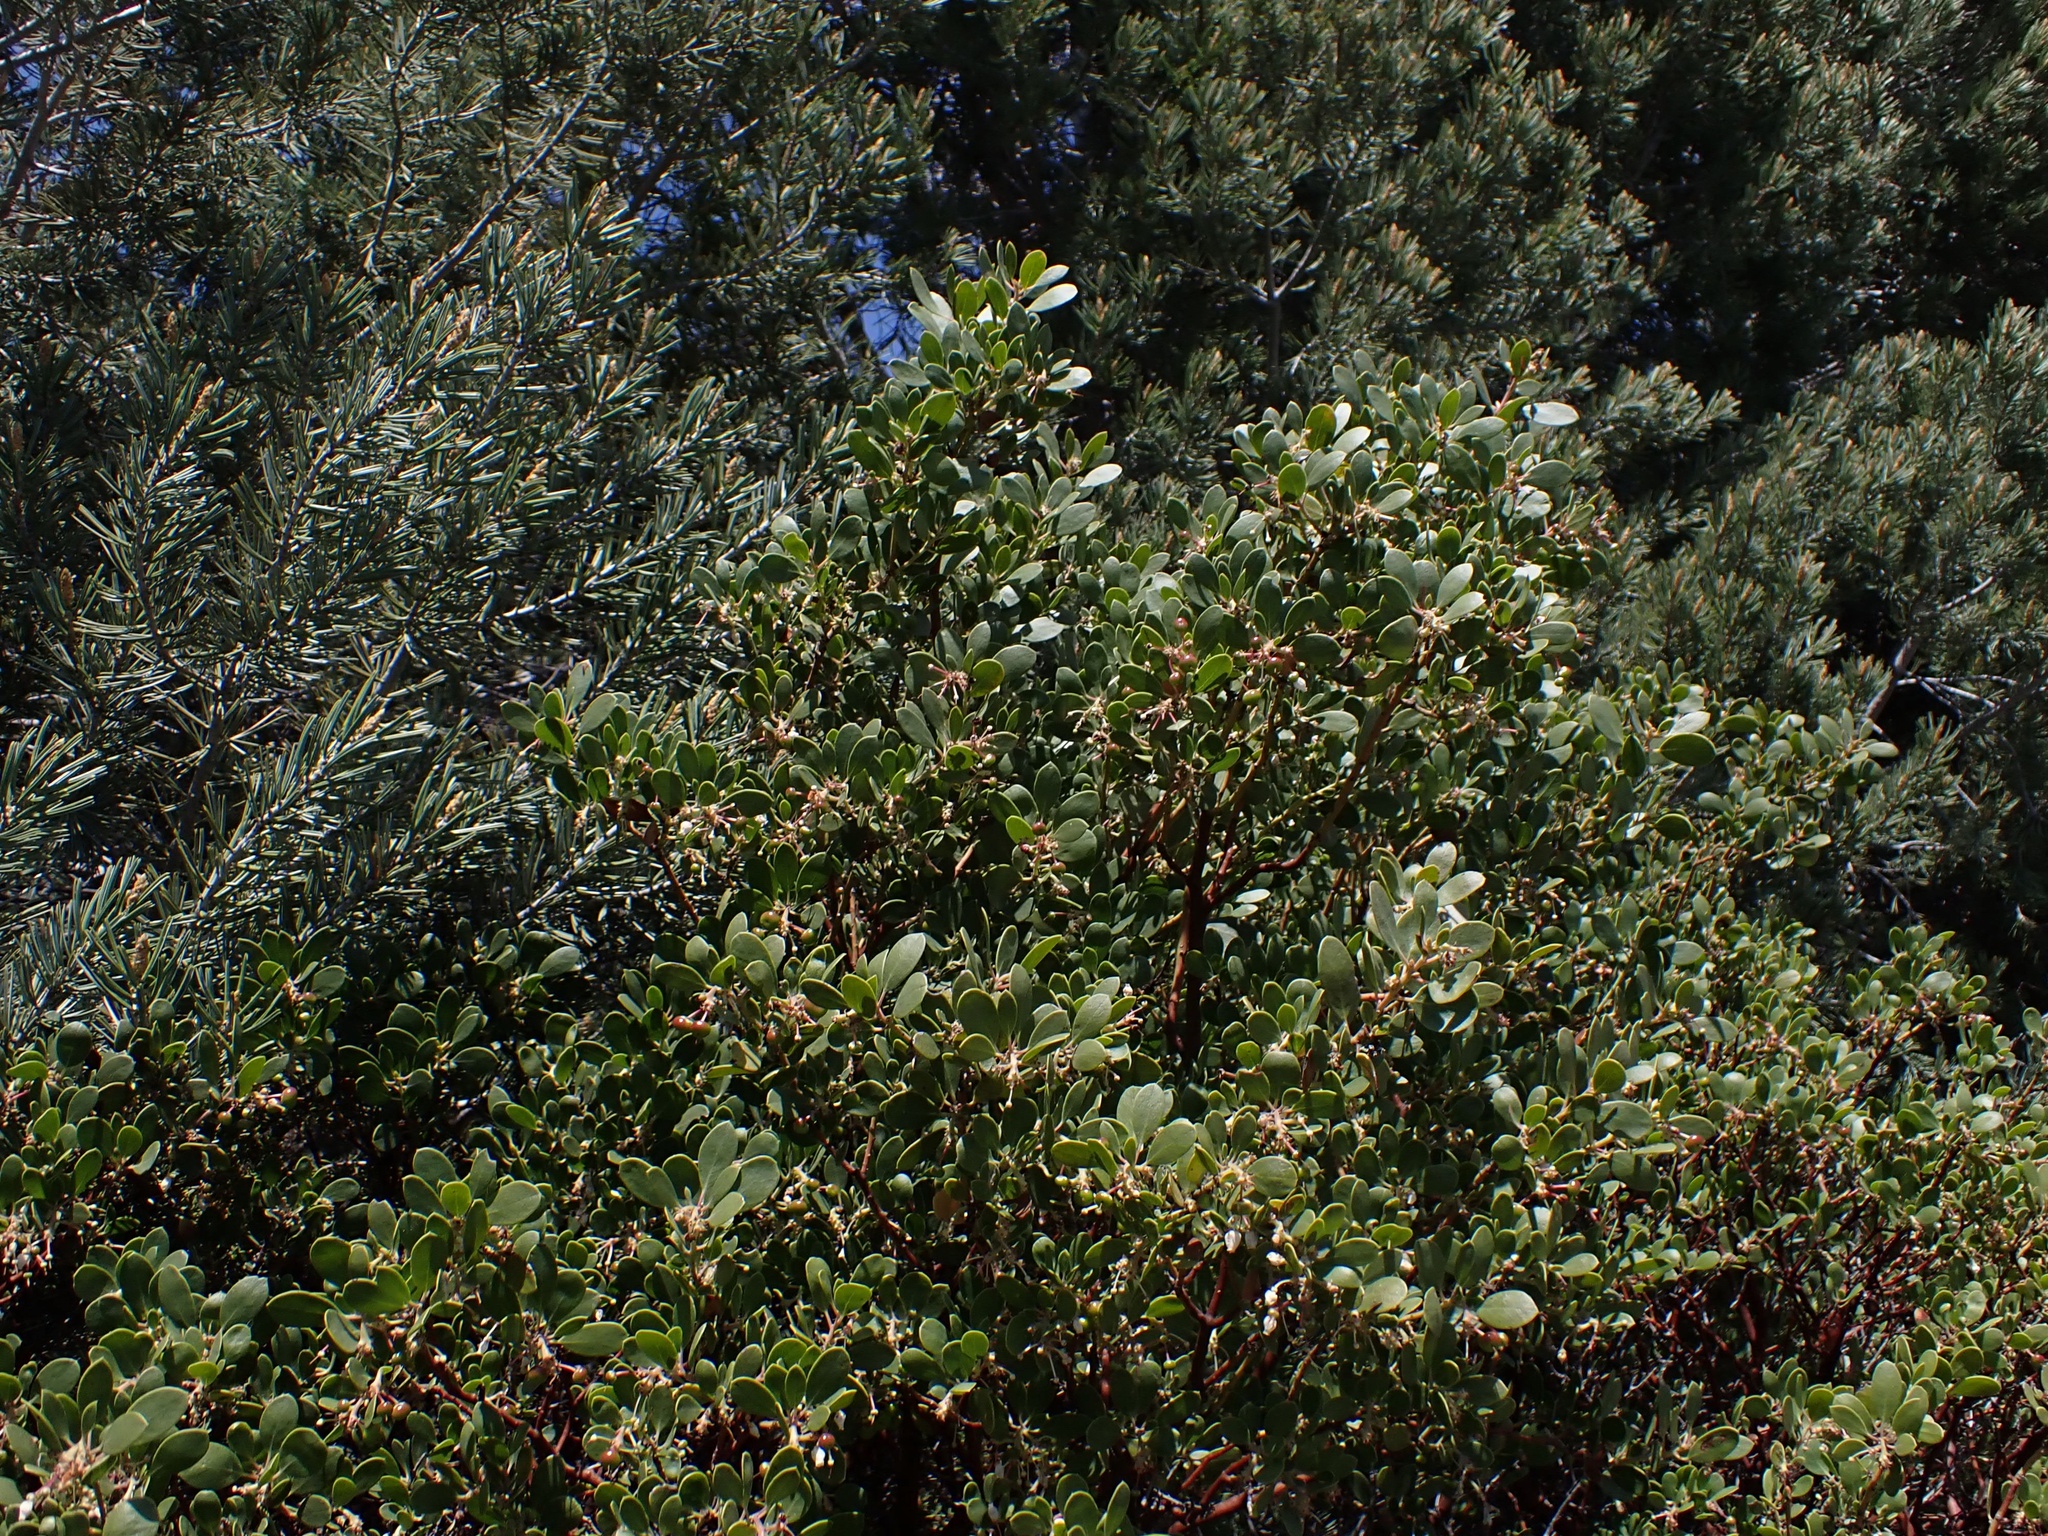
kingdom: Plantae
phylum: Tracheophyta
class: Magnoliopsida
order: Ericales
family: Ericaceae
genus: Arctostaphylos
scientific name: Arctostaphylos pungens
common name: Mexican manzanita
